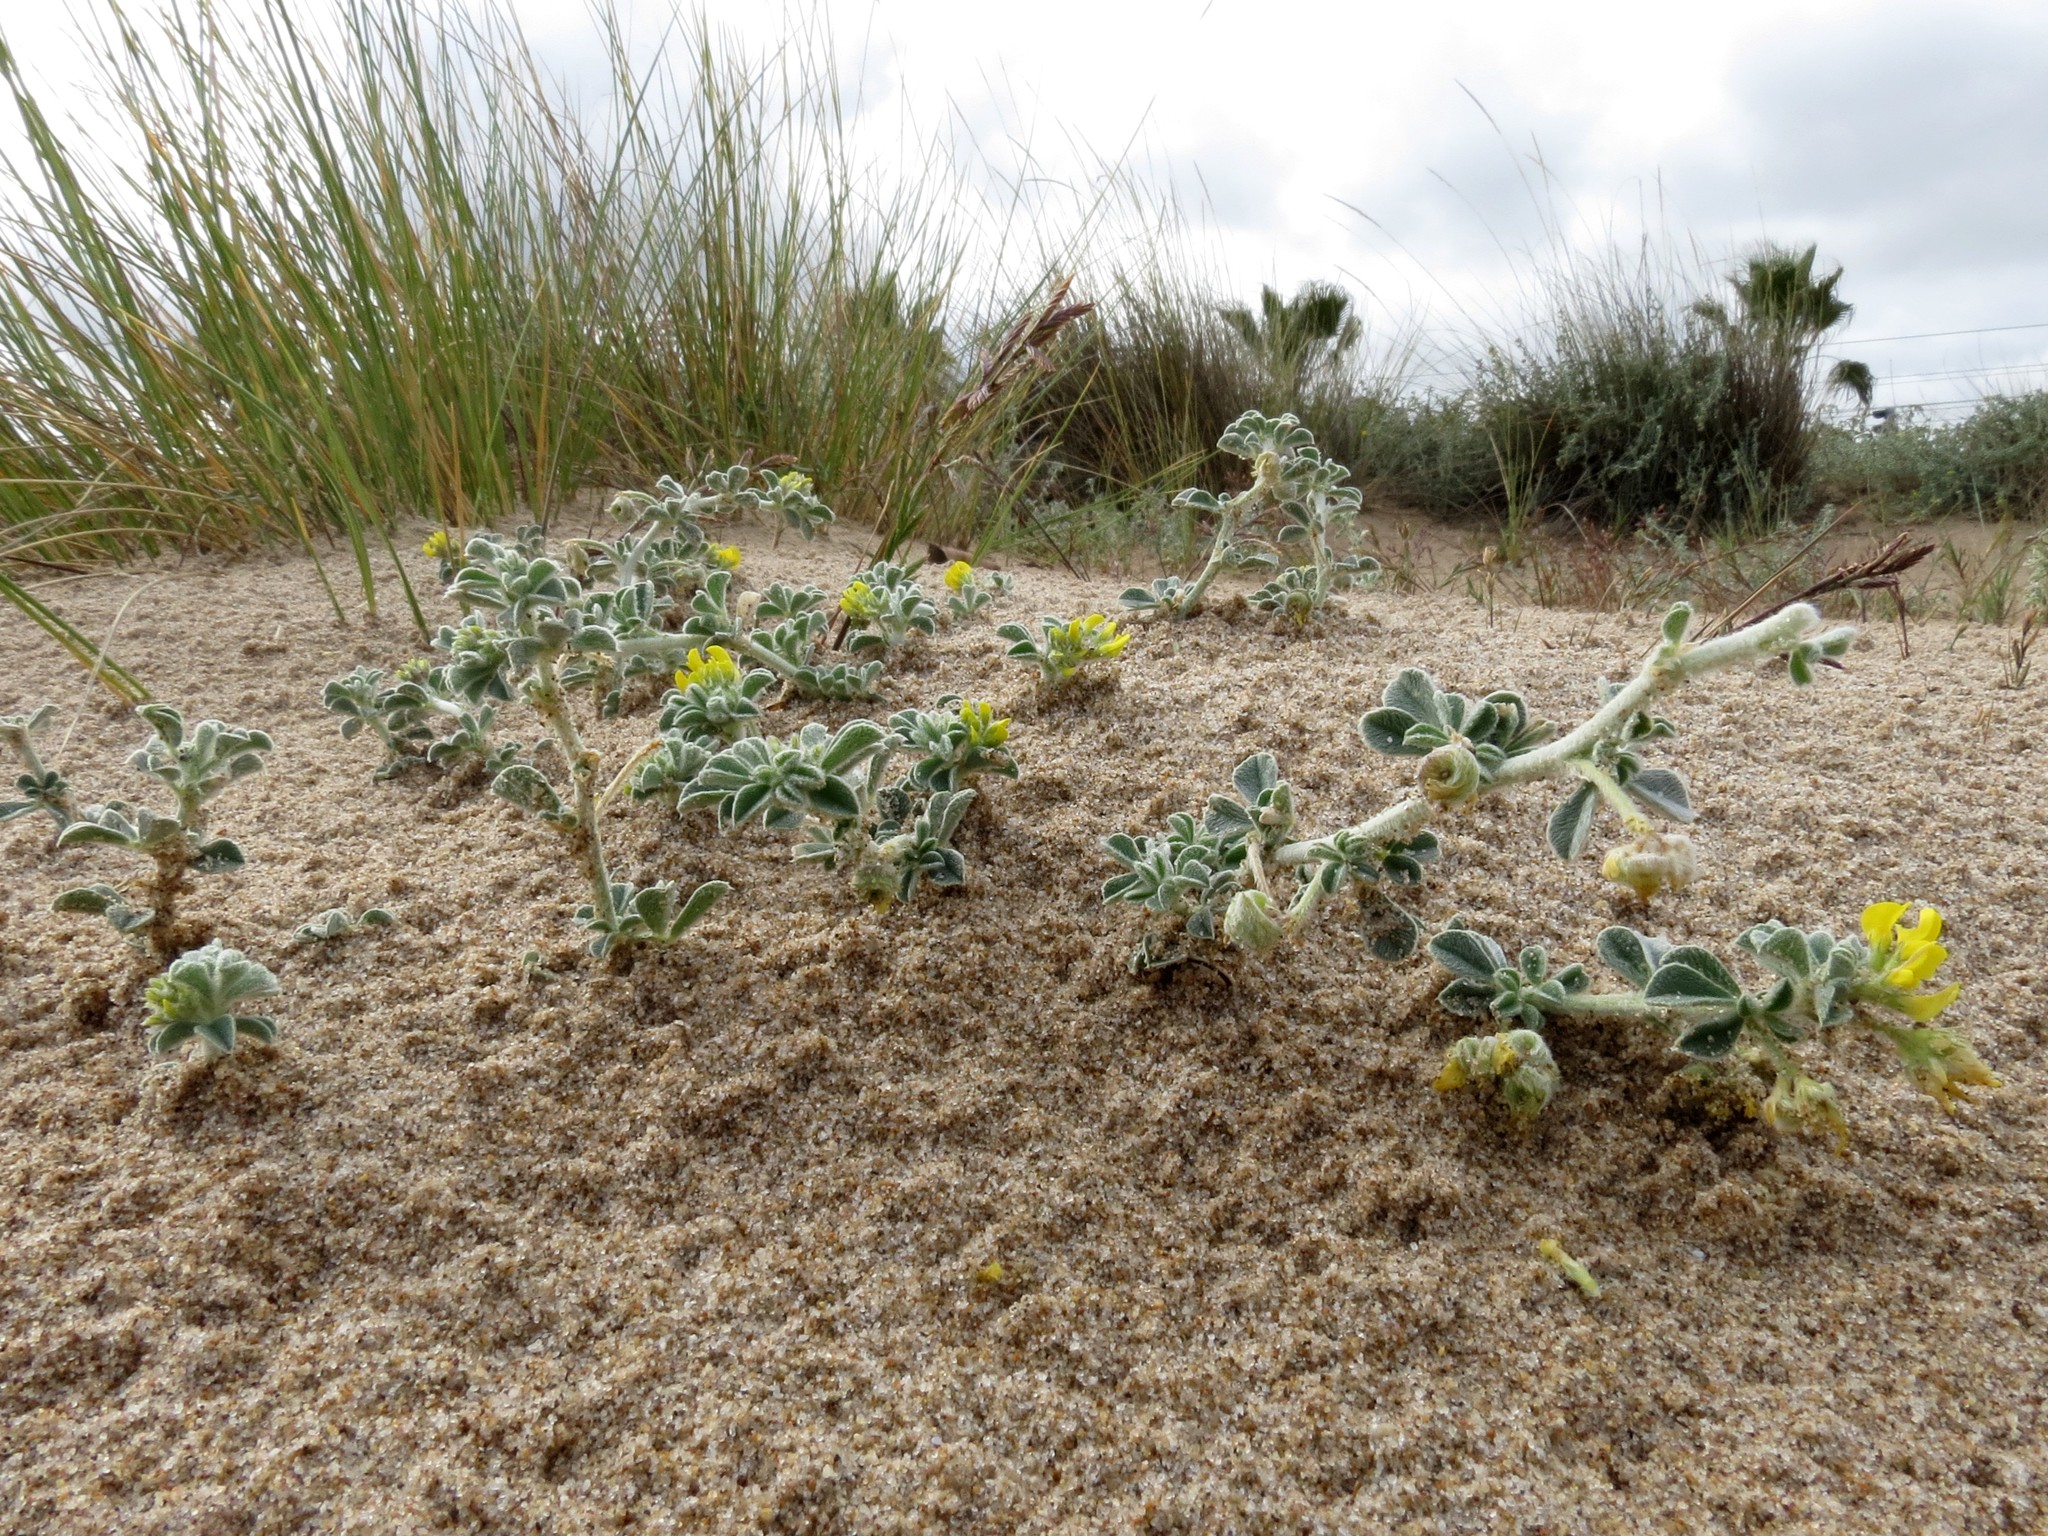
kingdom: Plantae
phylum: Tracheophyta
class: Magnoliopsida
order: Fabales
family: Fabaceae
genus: Medicago
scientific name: Medicago marina
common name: Sea medick
